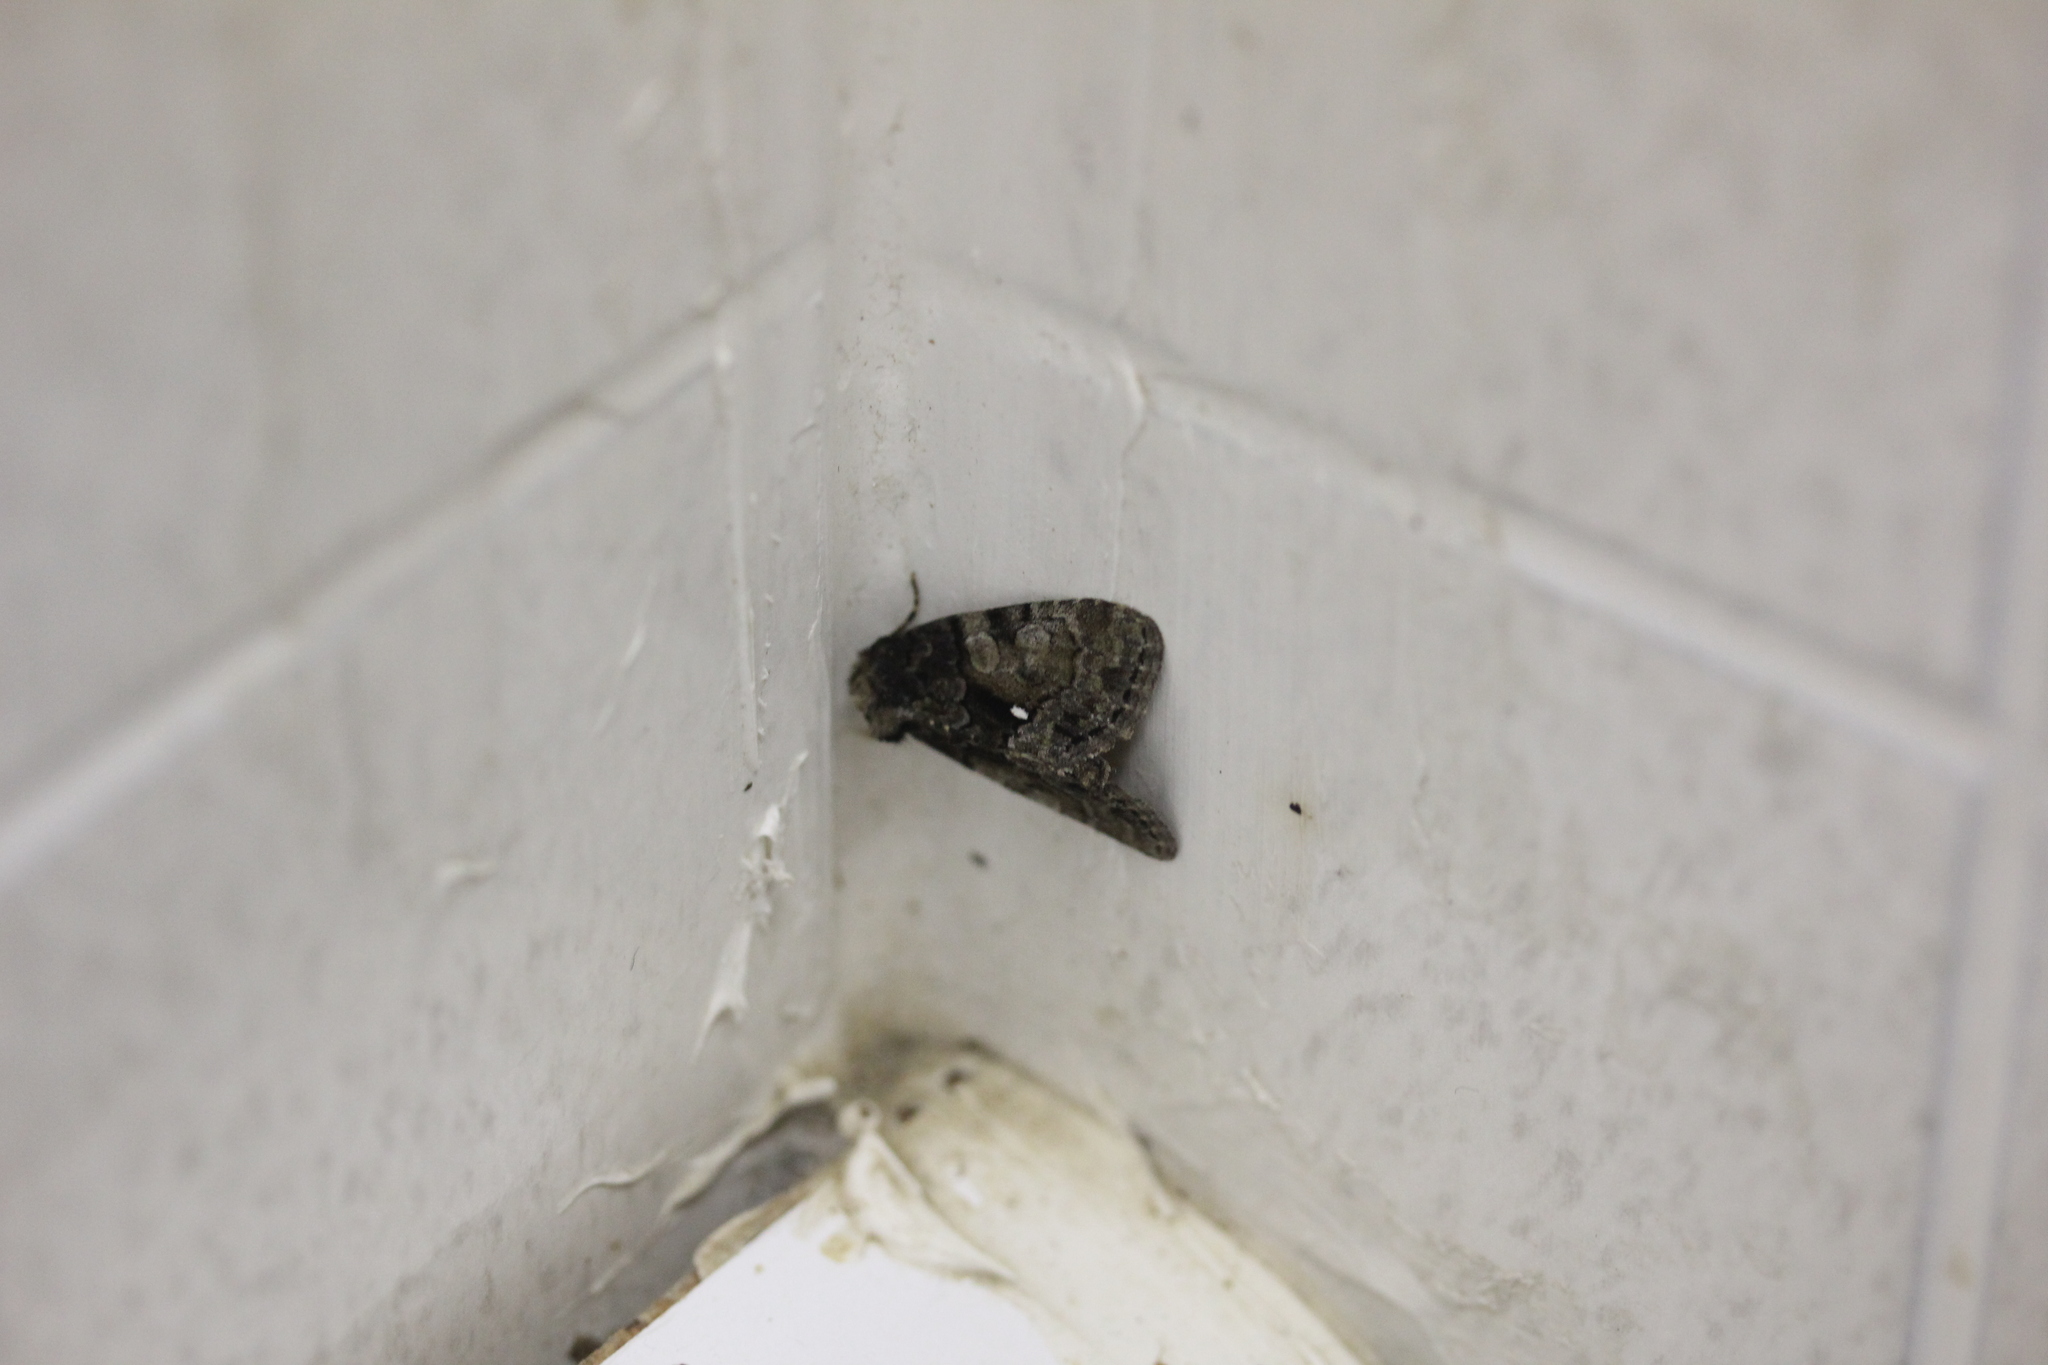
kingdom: Animalia
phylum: Arthropoda
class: Insecta
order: Lepidoptera
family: Noctuidae
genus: Chytonix
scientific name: Chytonix palliatricula
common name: Cloaked marvel
